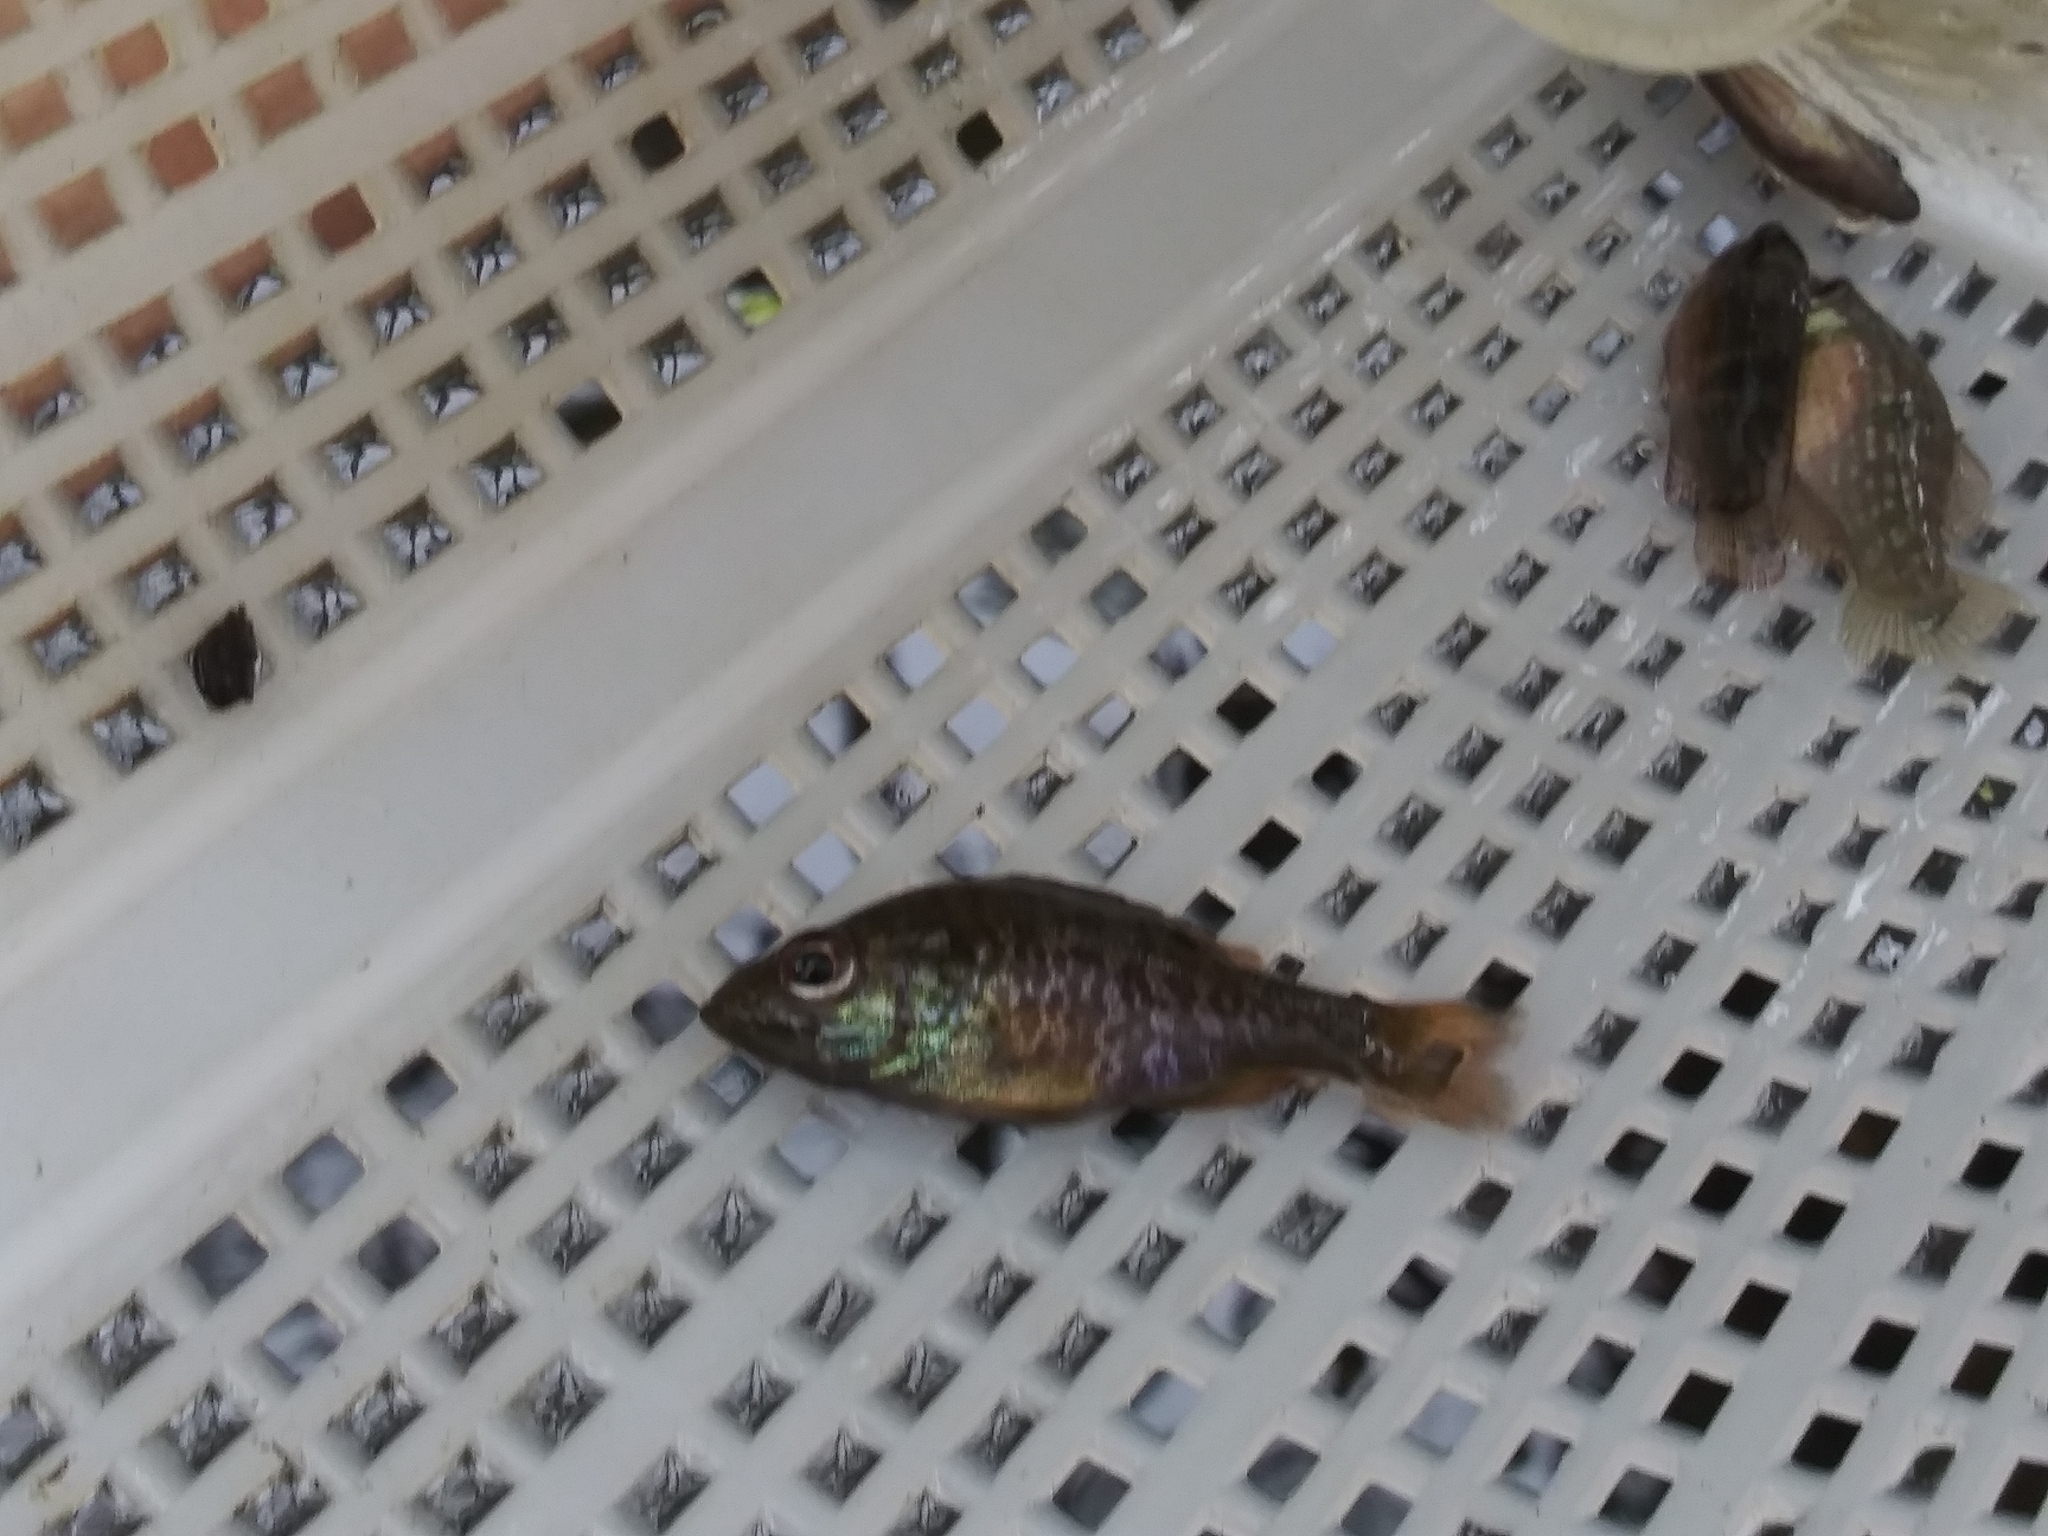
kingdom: Animalia
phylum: Chordata
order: Perciformes
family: Centrarchidae
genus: Lepomis
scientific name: Lepomis gulosus
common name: Warmouth
